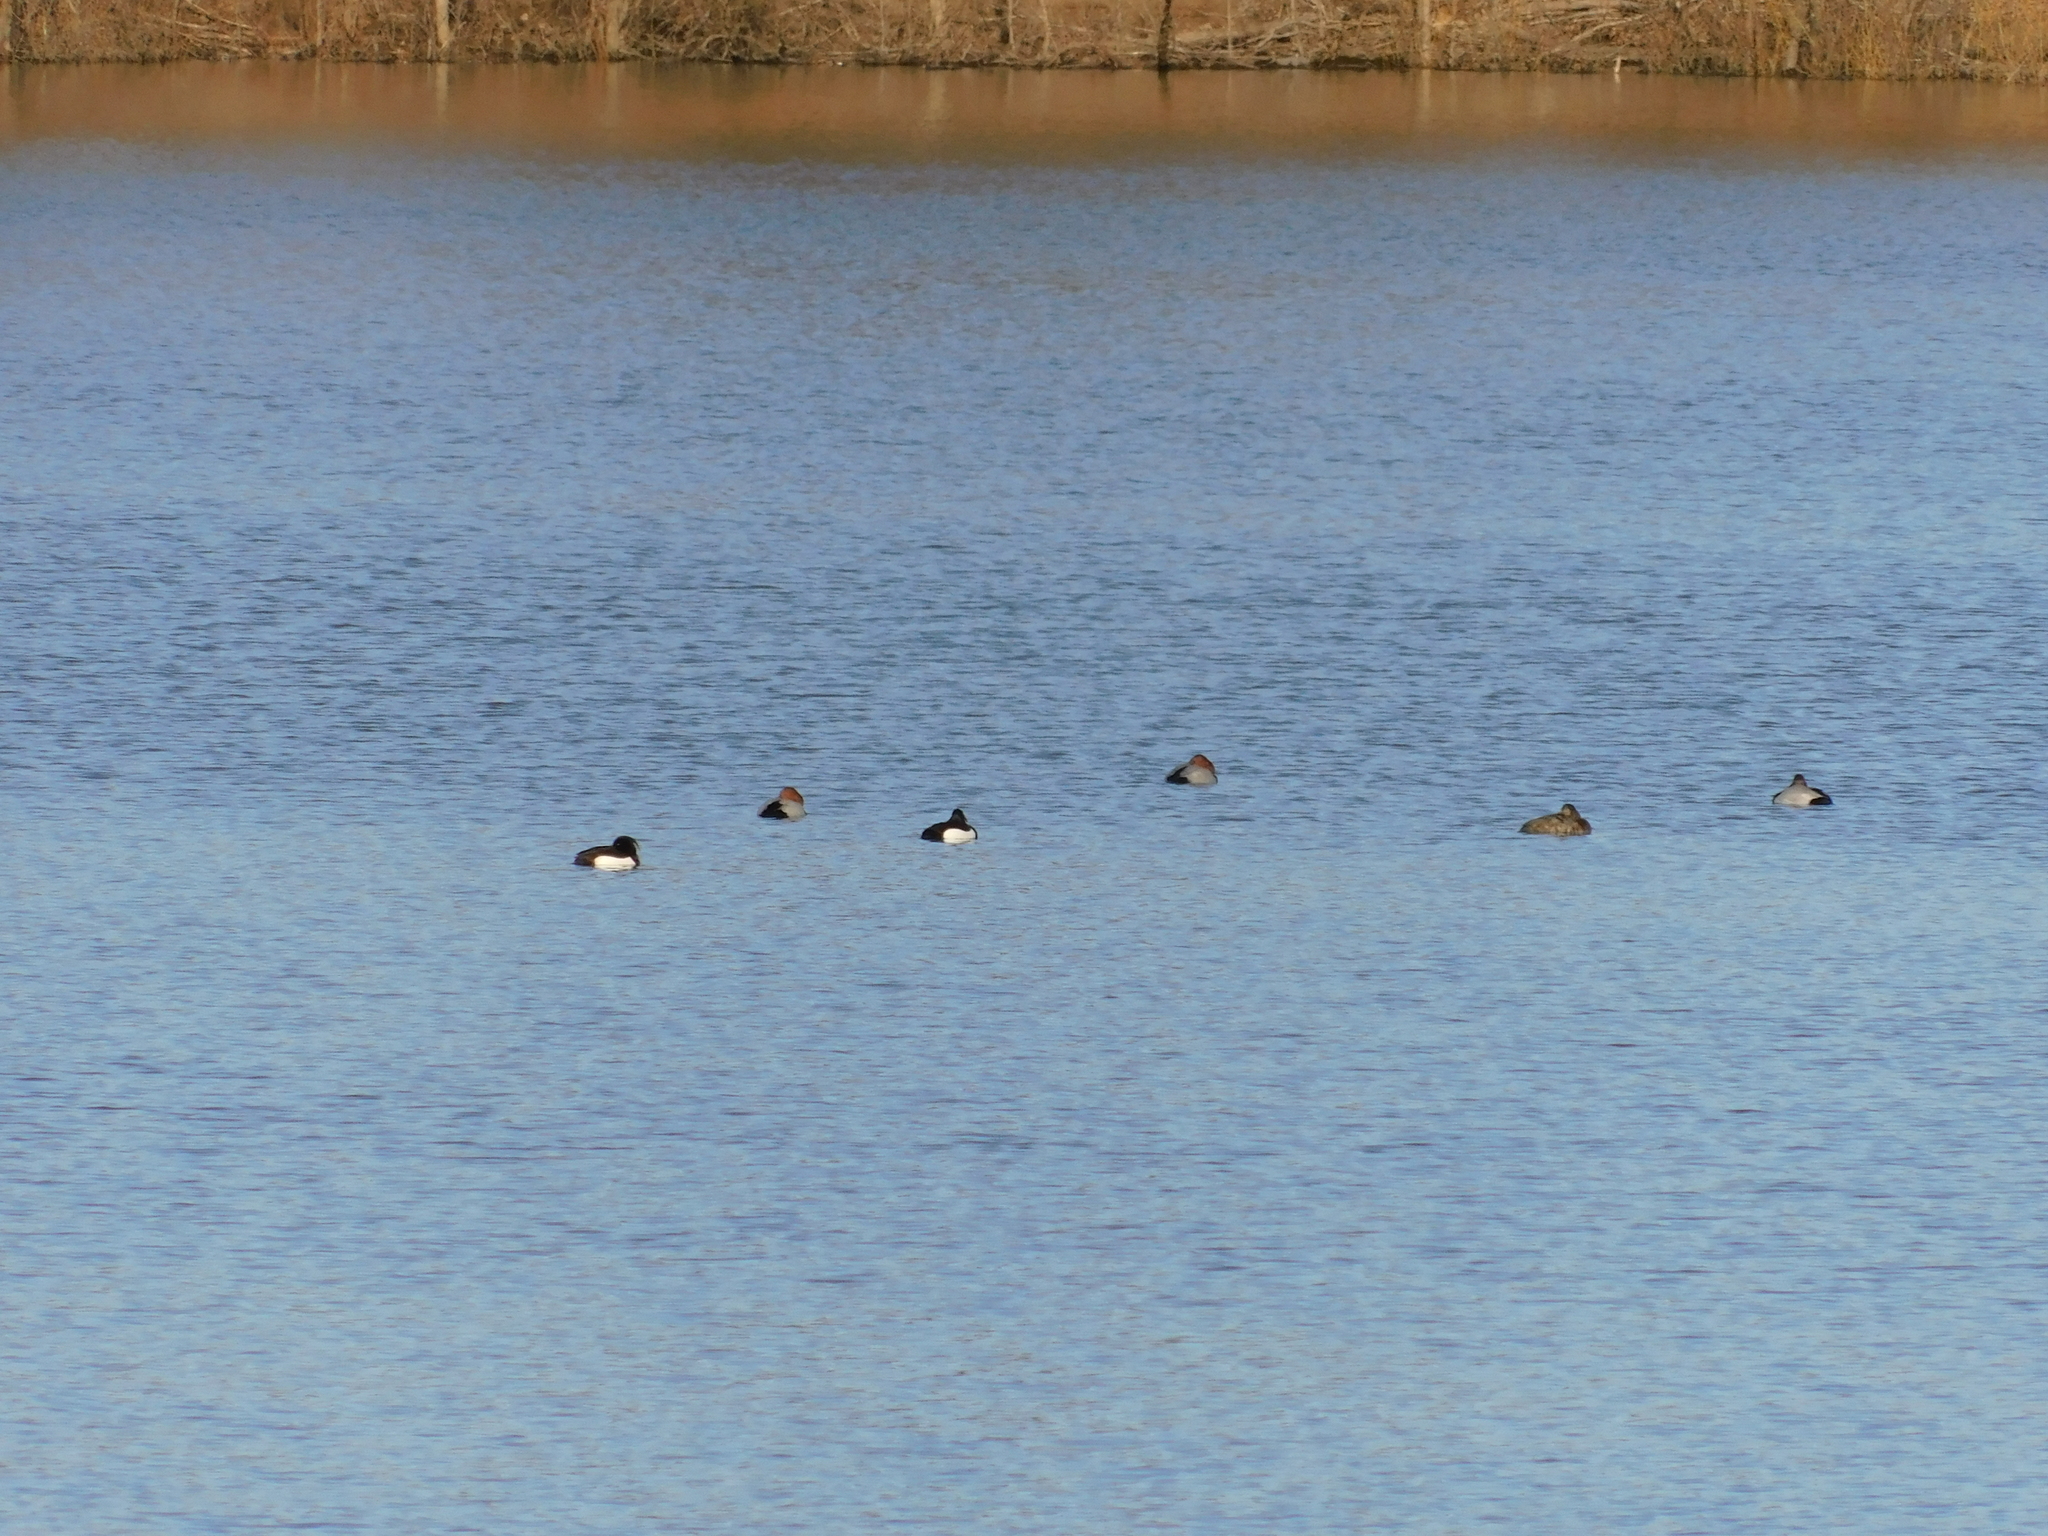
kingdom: Animalia
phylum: Chordata
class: Aves
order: Anseriformes
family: Anatidae
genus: Aythya
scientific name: Aythya fuligula
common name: Tufted duck
